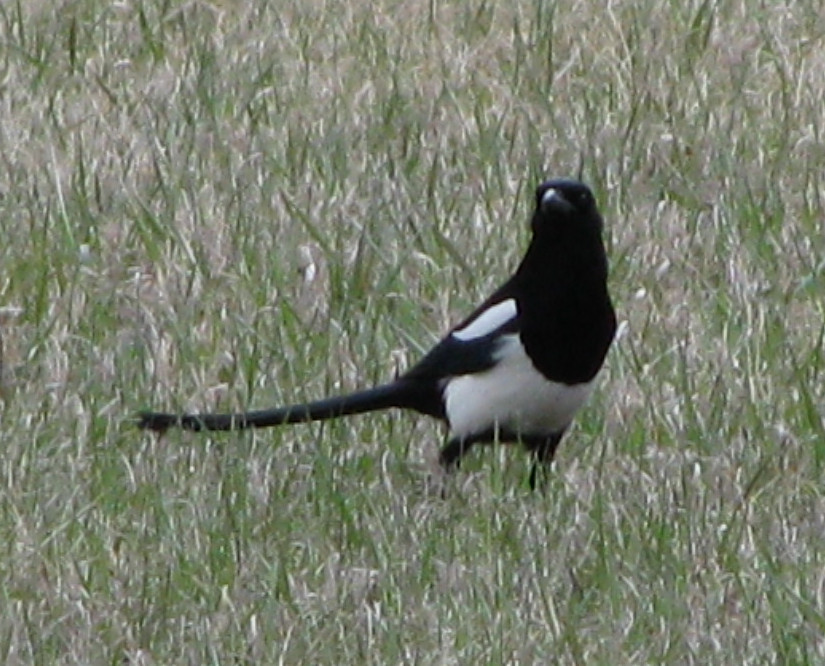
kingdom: Animalia
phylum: Chordata
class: Aves
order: Passeriformes
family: Corvidae
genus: Pica
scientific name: Pica hudsonia
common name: Black-billed magpie
